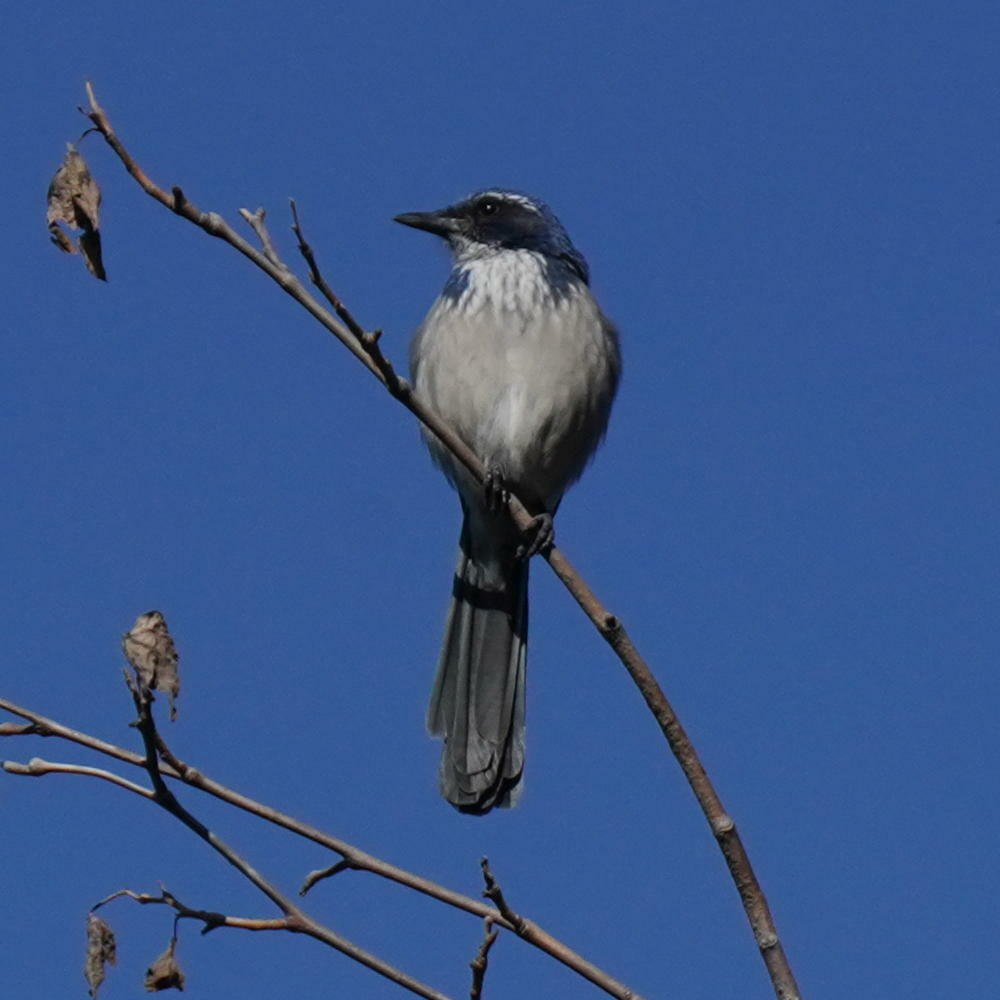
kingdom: Animalia
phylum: Chordata
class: Aves
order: Passeriformes
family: Corvidae
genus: Aphelocoma
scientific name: Aphelocoma californica
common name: California scrub-jay
